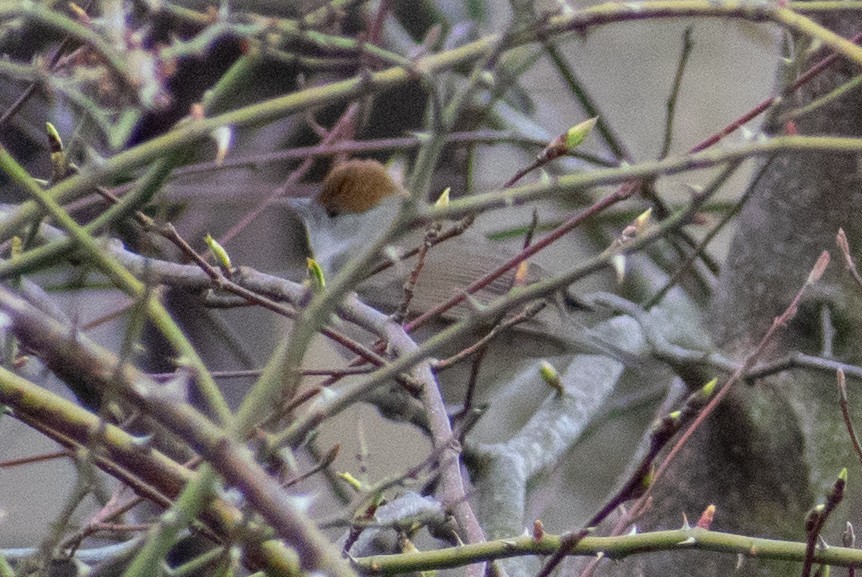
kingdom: Animalia
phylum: Chordata
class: Aves
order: Passeriformes
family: Sylviidae
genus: Sylvia
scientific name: Sylvia atricapilla
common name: Eurasian blackcap
